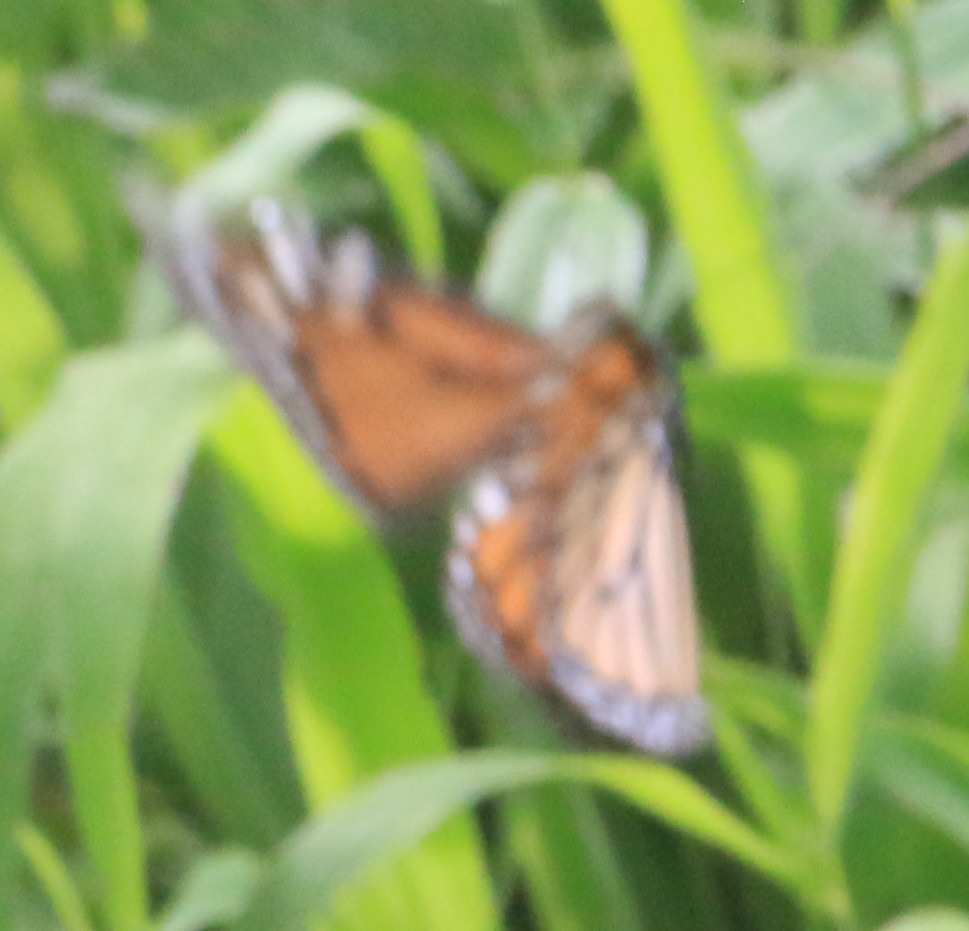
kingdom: Animalia
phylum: Arthropoda
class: Insecta
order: Lepidoptera
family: Nymphalidae
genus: Danaus
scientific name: Danaus plexippus
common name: Monarch
